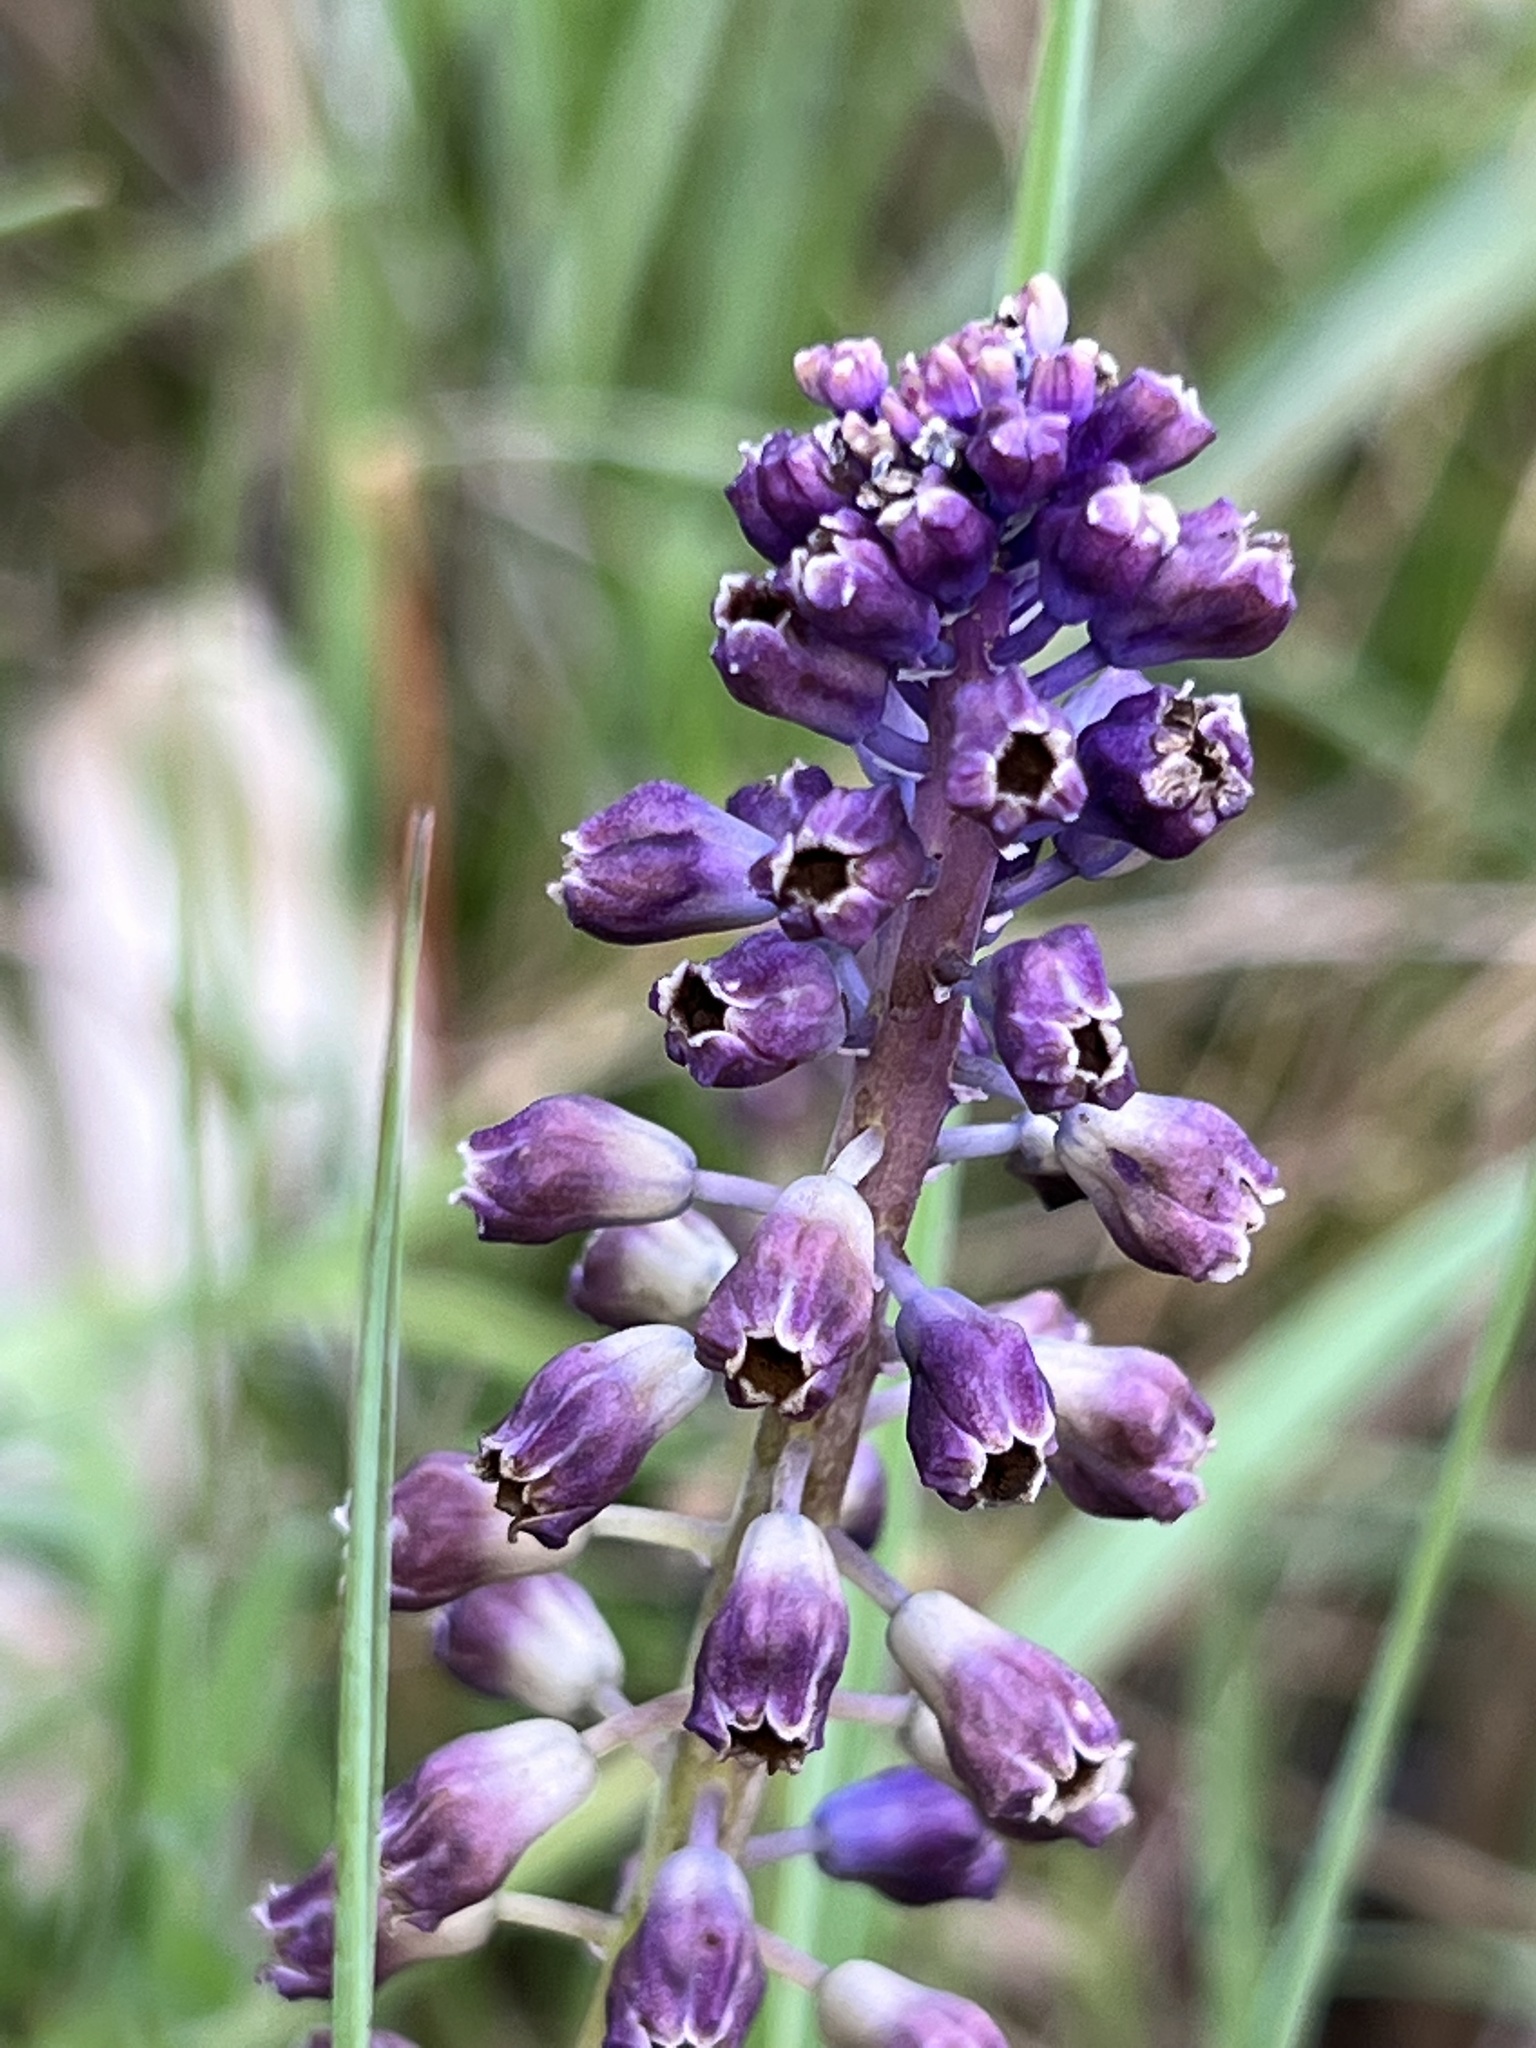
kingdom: Plantae
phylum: Tracheophyta
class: Liliopsida
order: Asparagales
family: Asparagaceae
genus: Muscari
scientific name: Muscari comosum
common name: Tassel hyacinth
